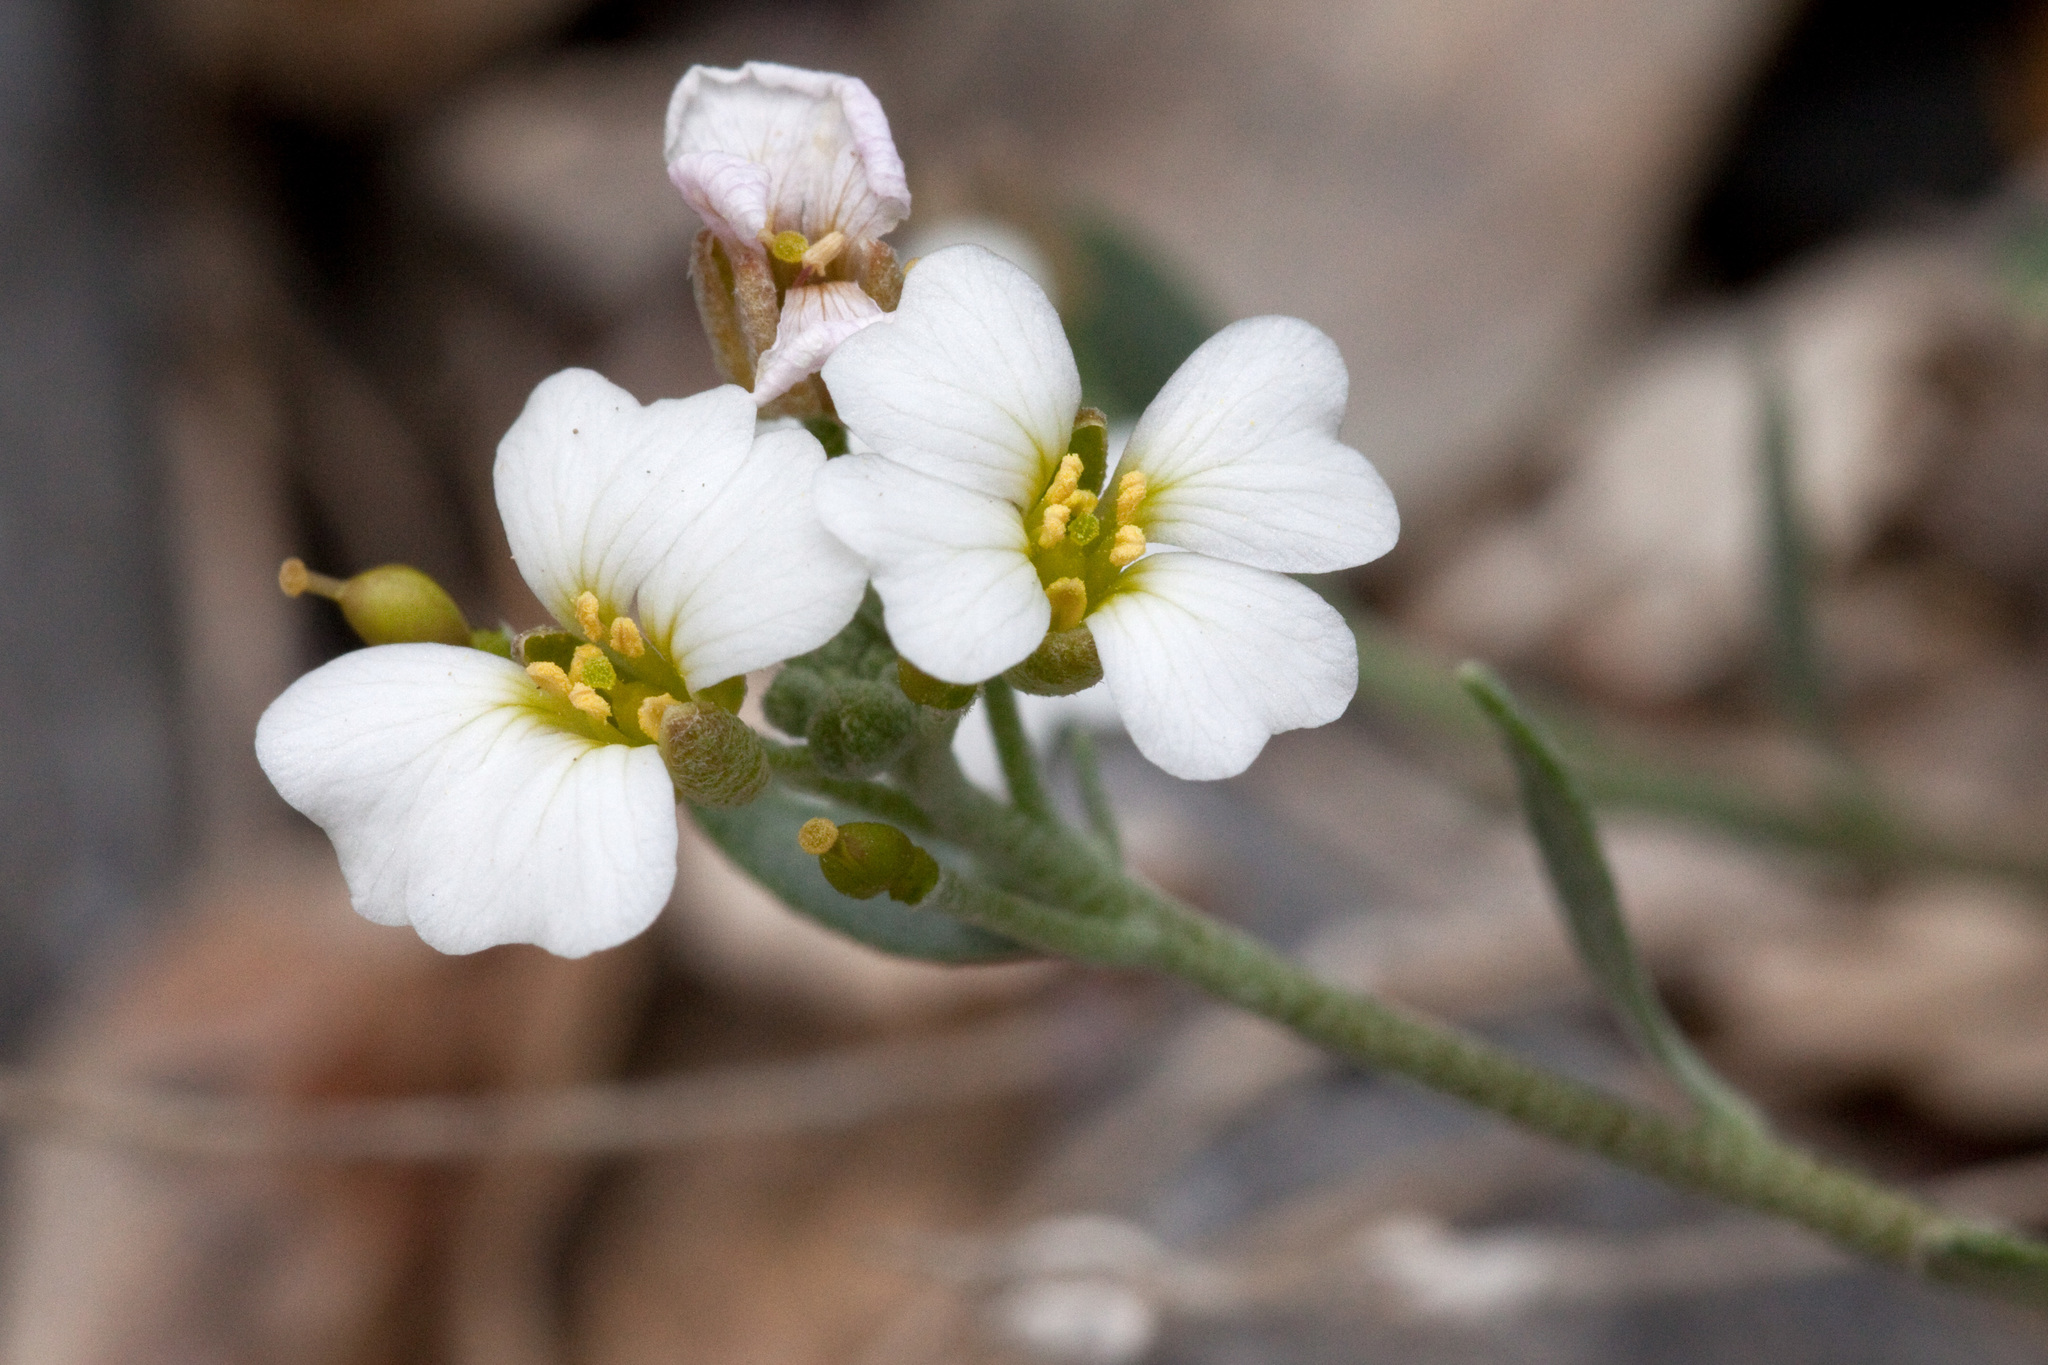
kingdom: Plantae
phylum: Tracheophyta
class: Magnoliopsida
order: Brassicales
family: Brassicaceae
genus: Physaria
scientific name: Physaria purpurea
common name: Rose bladderpod
